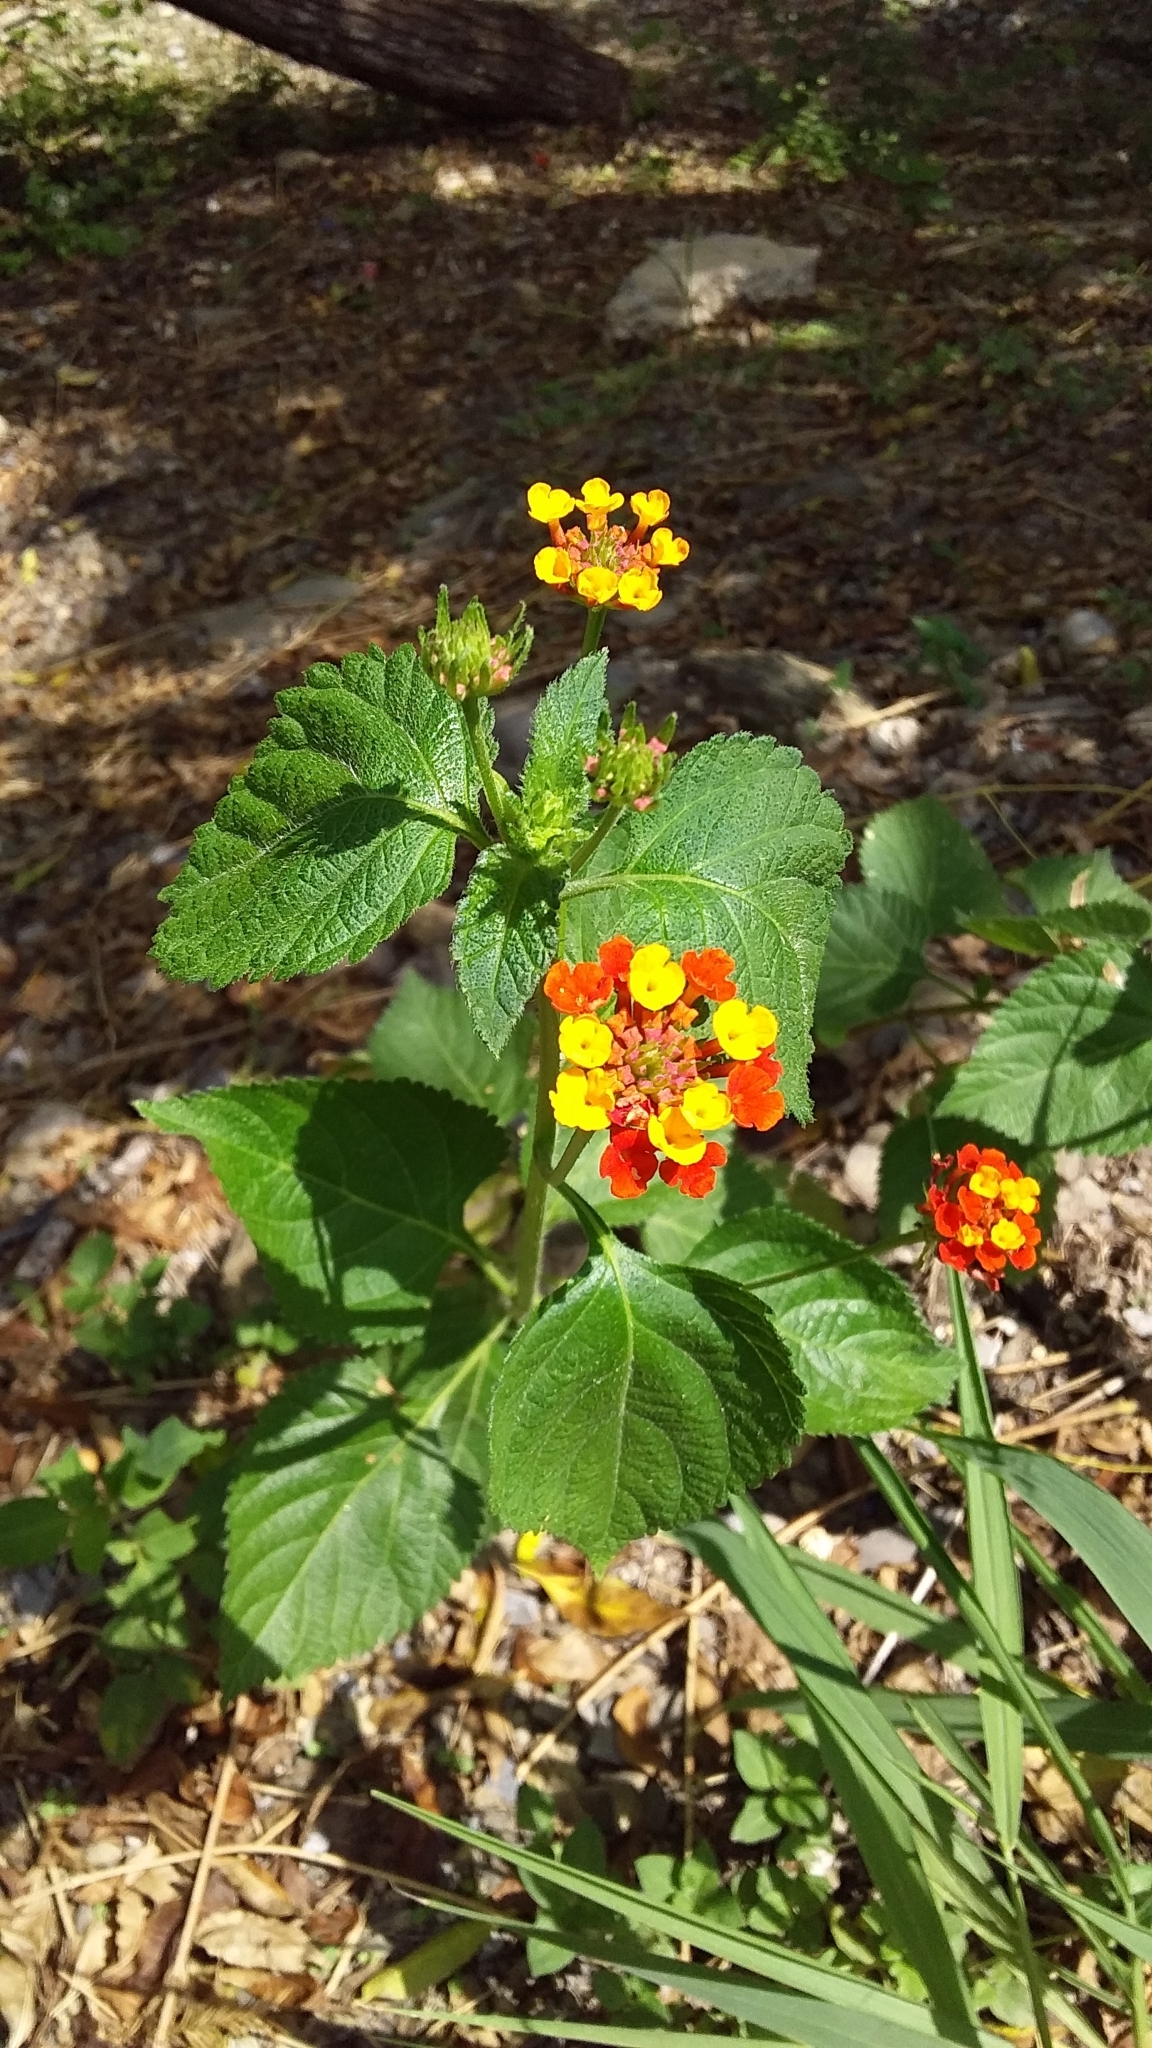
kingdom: Plantae
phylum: Tracheophyta
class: Magnoliopsida
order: Lamiales
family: Verbenaceae
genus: Lantana
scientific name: Lantana camara
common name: Lantana
